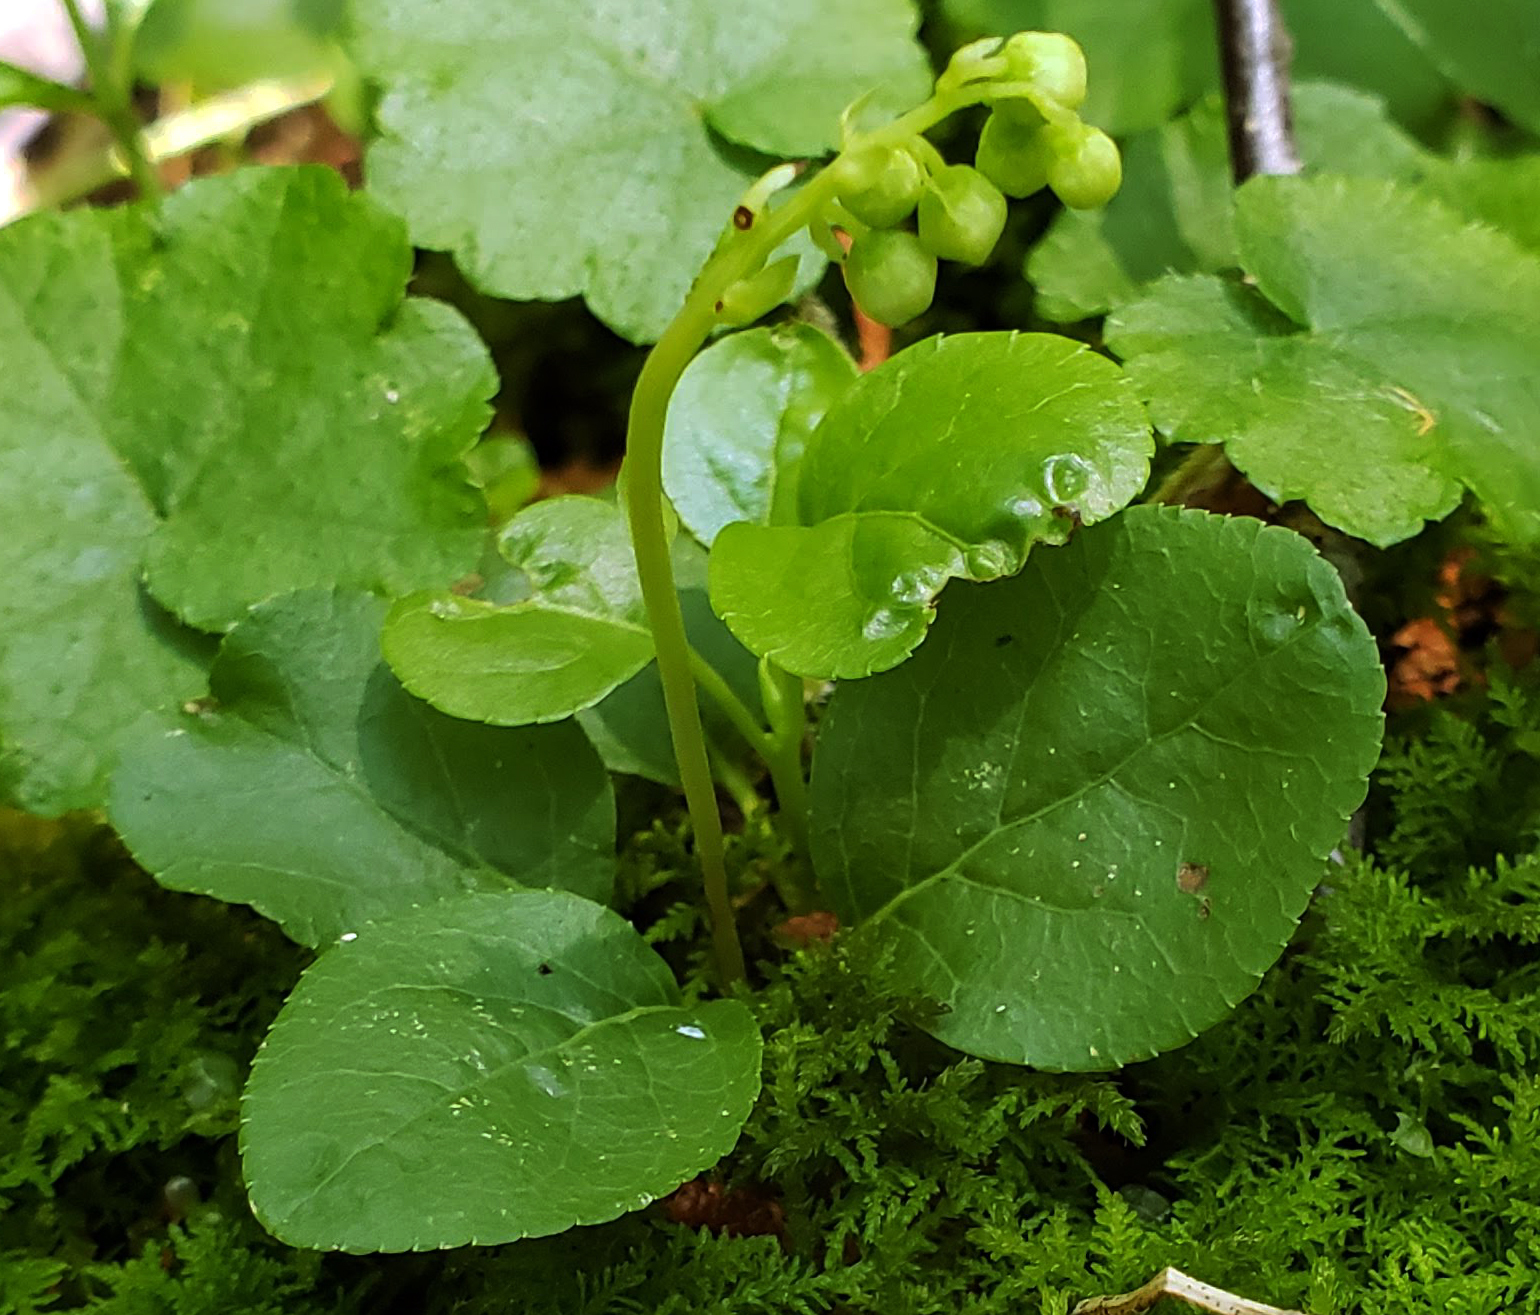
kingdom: Plantae
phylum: Tracheophyta
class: Magnoliopsida
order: Ericales
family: Ericaceae
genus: Orthilia
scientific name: Orthilia secunda
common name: One-sided orthilia
